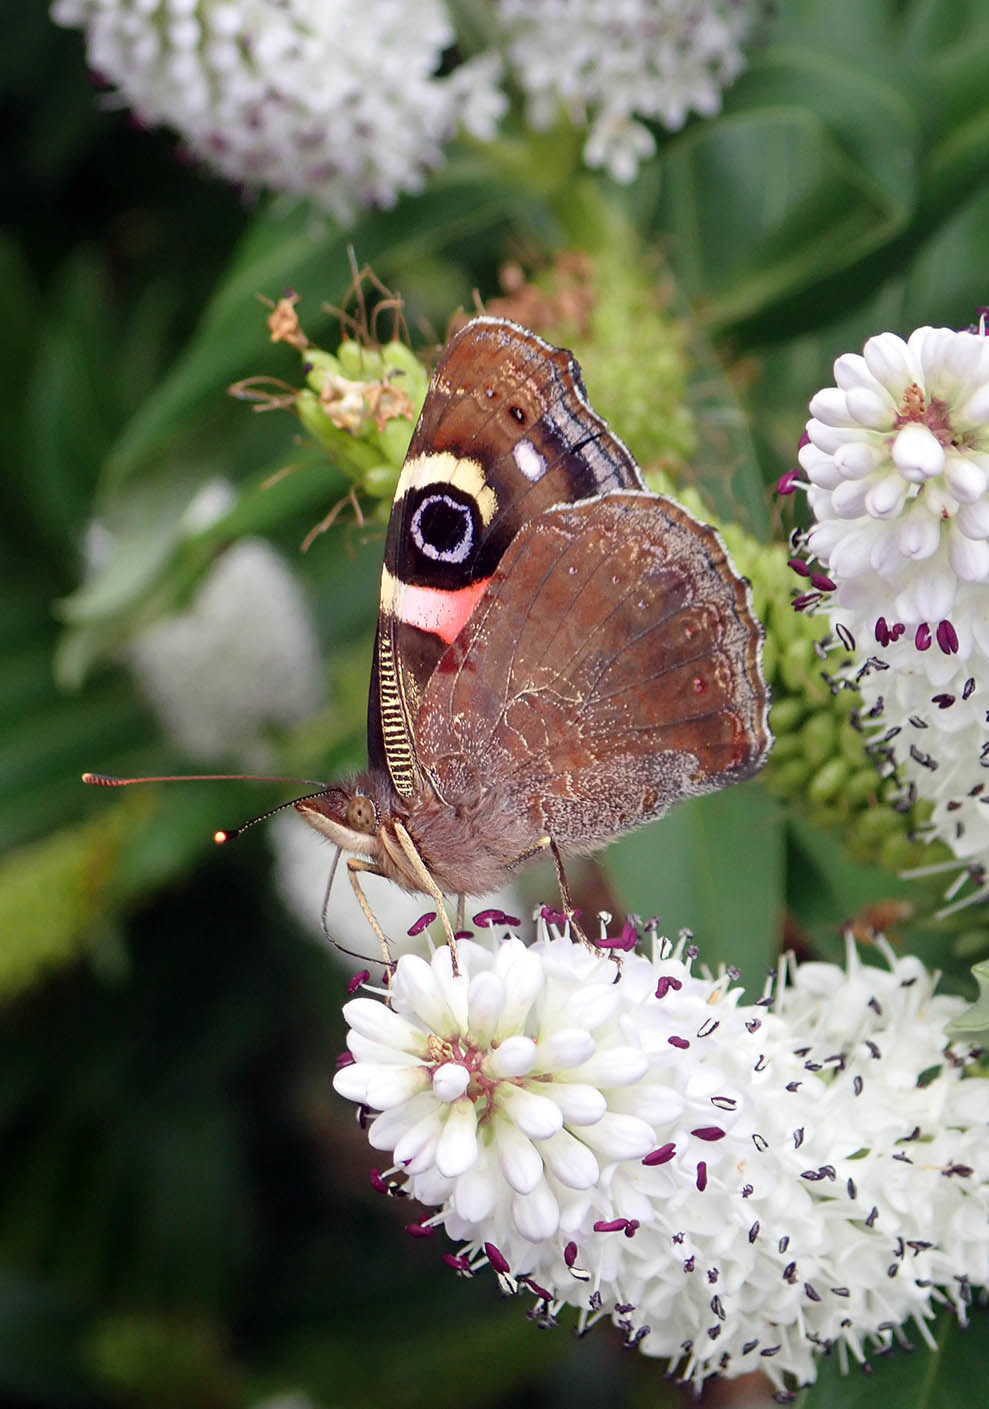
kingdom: Animalia
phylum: Arthropoda
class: Insecta
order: Lepidoptera
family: Nymphalidae
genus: Vanessa
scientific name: Vanessa gonerilla
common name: New zealand red admiral
